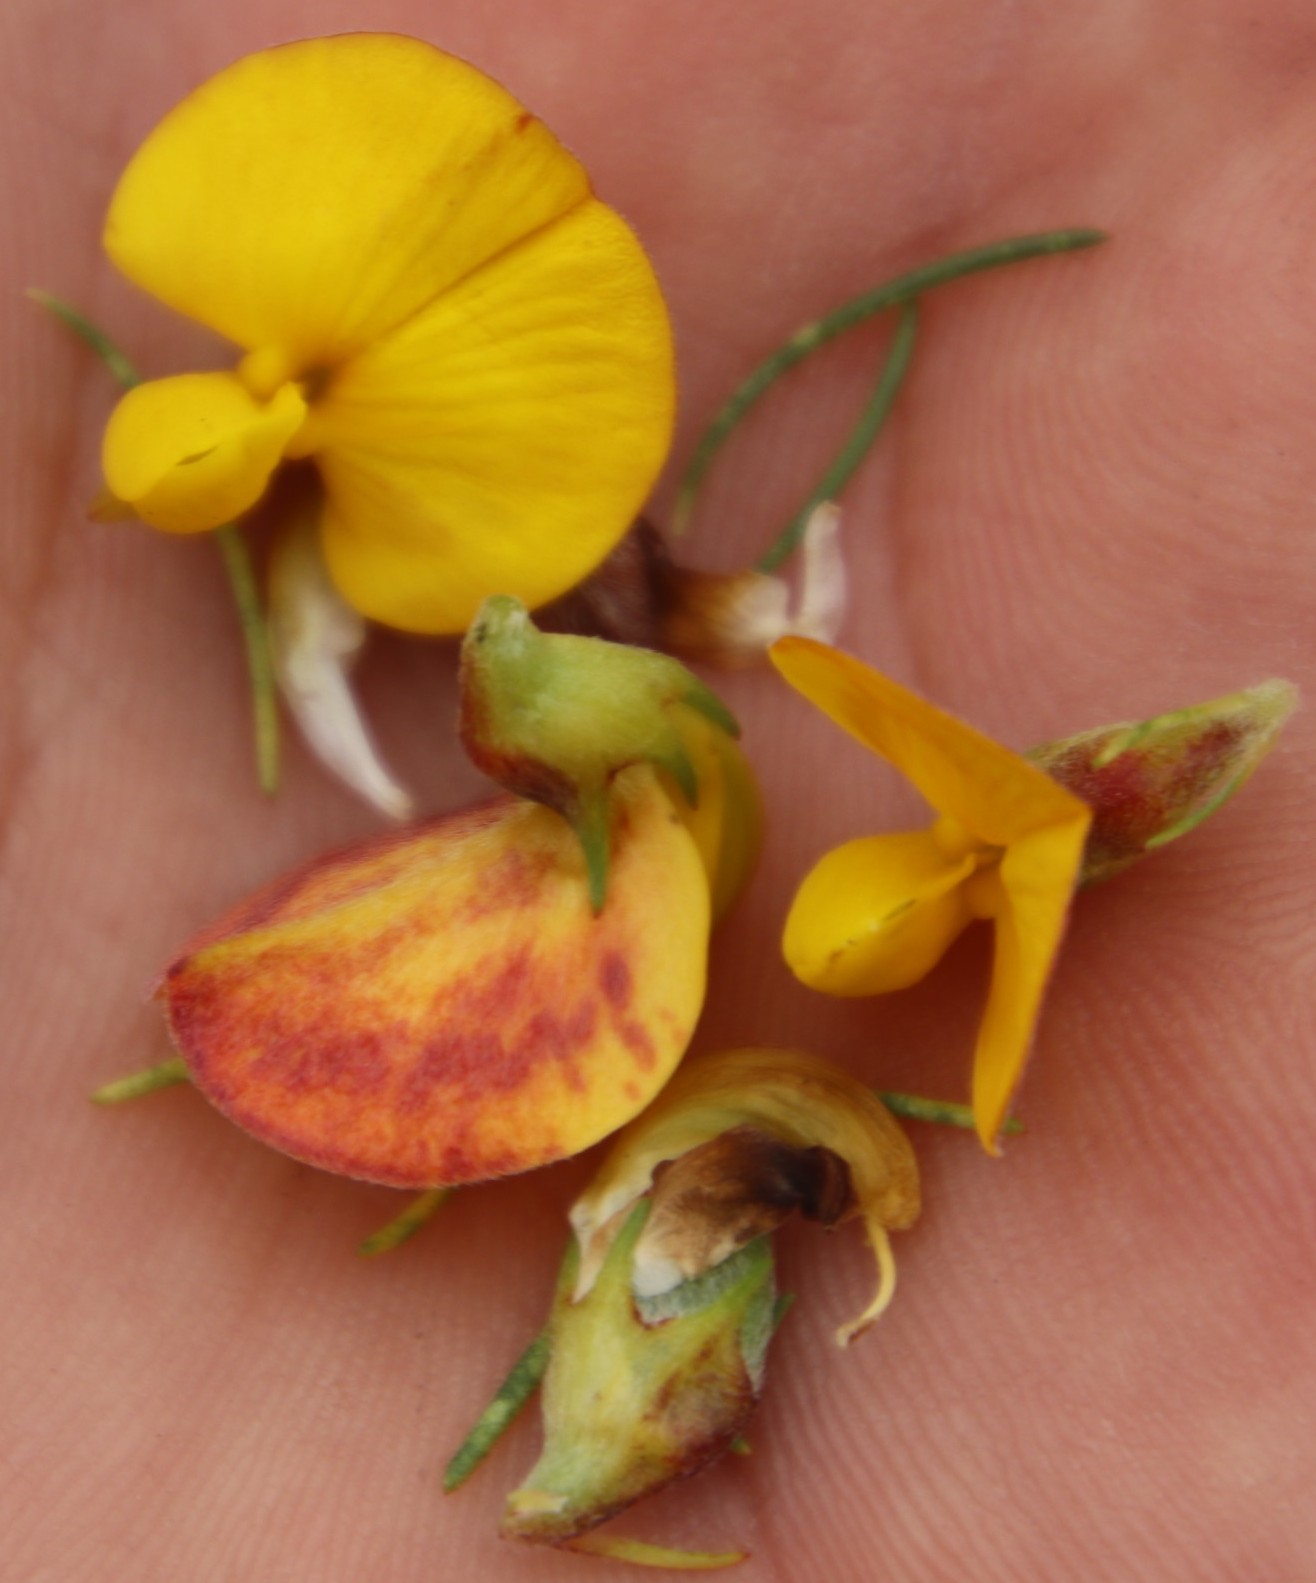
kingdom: Plantae
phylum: Tracheophyta
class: Magnoliopsida
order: Fabales
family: Fabaceae
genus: Aspalathus
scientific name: Aspalathus uniflora
